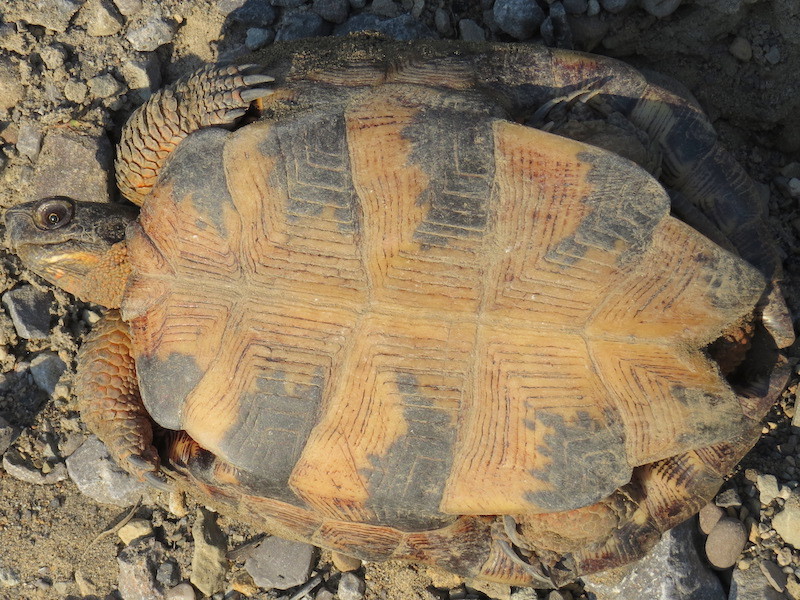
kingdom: Animalia
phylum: Chordata
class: Testudines
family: Emydidae
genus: Glyptemys
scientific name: Glyptemys insculpta
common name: Wood turtle
